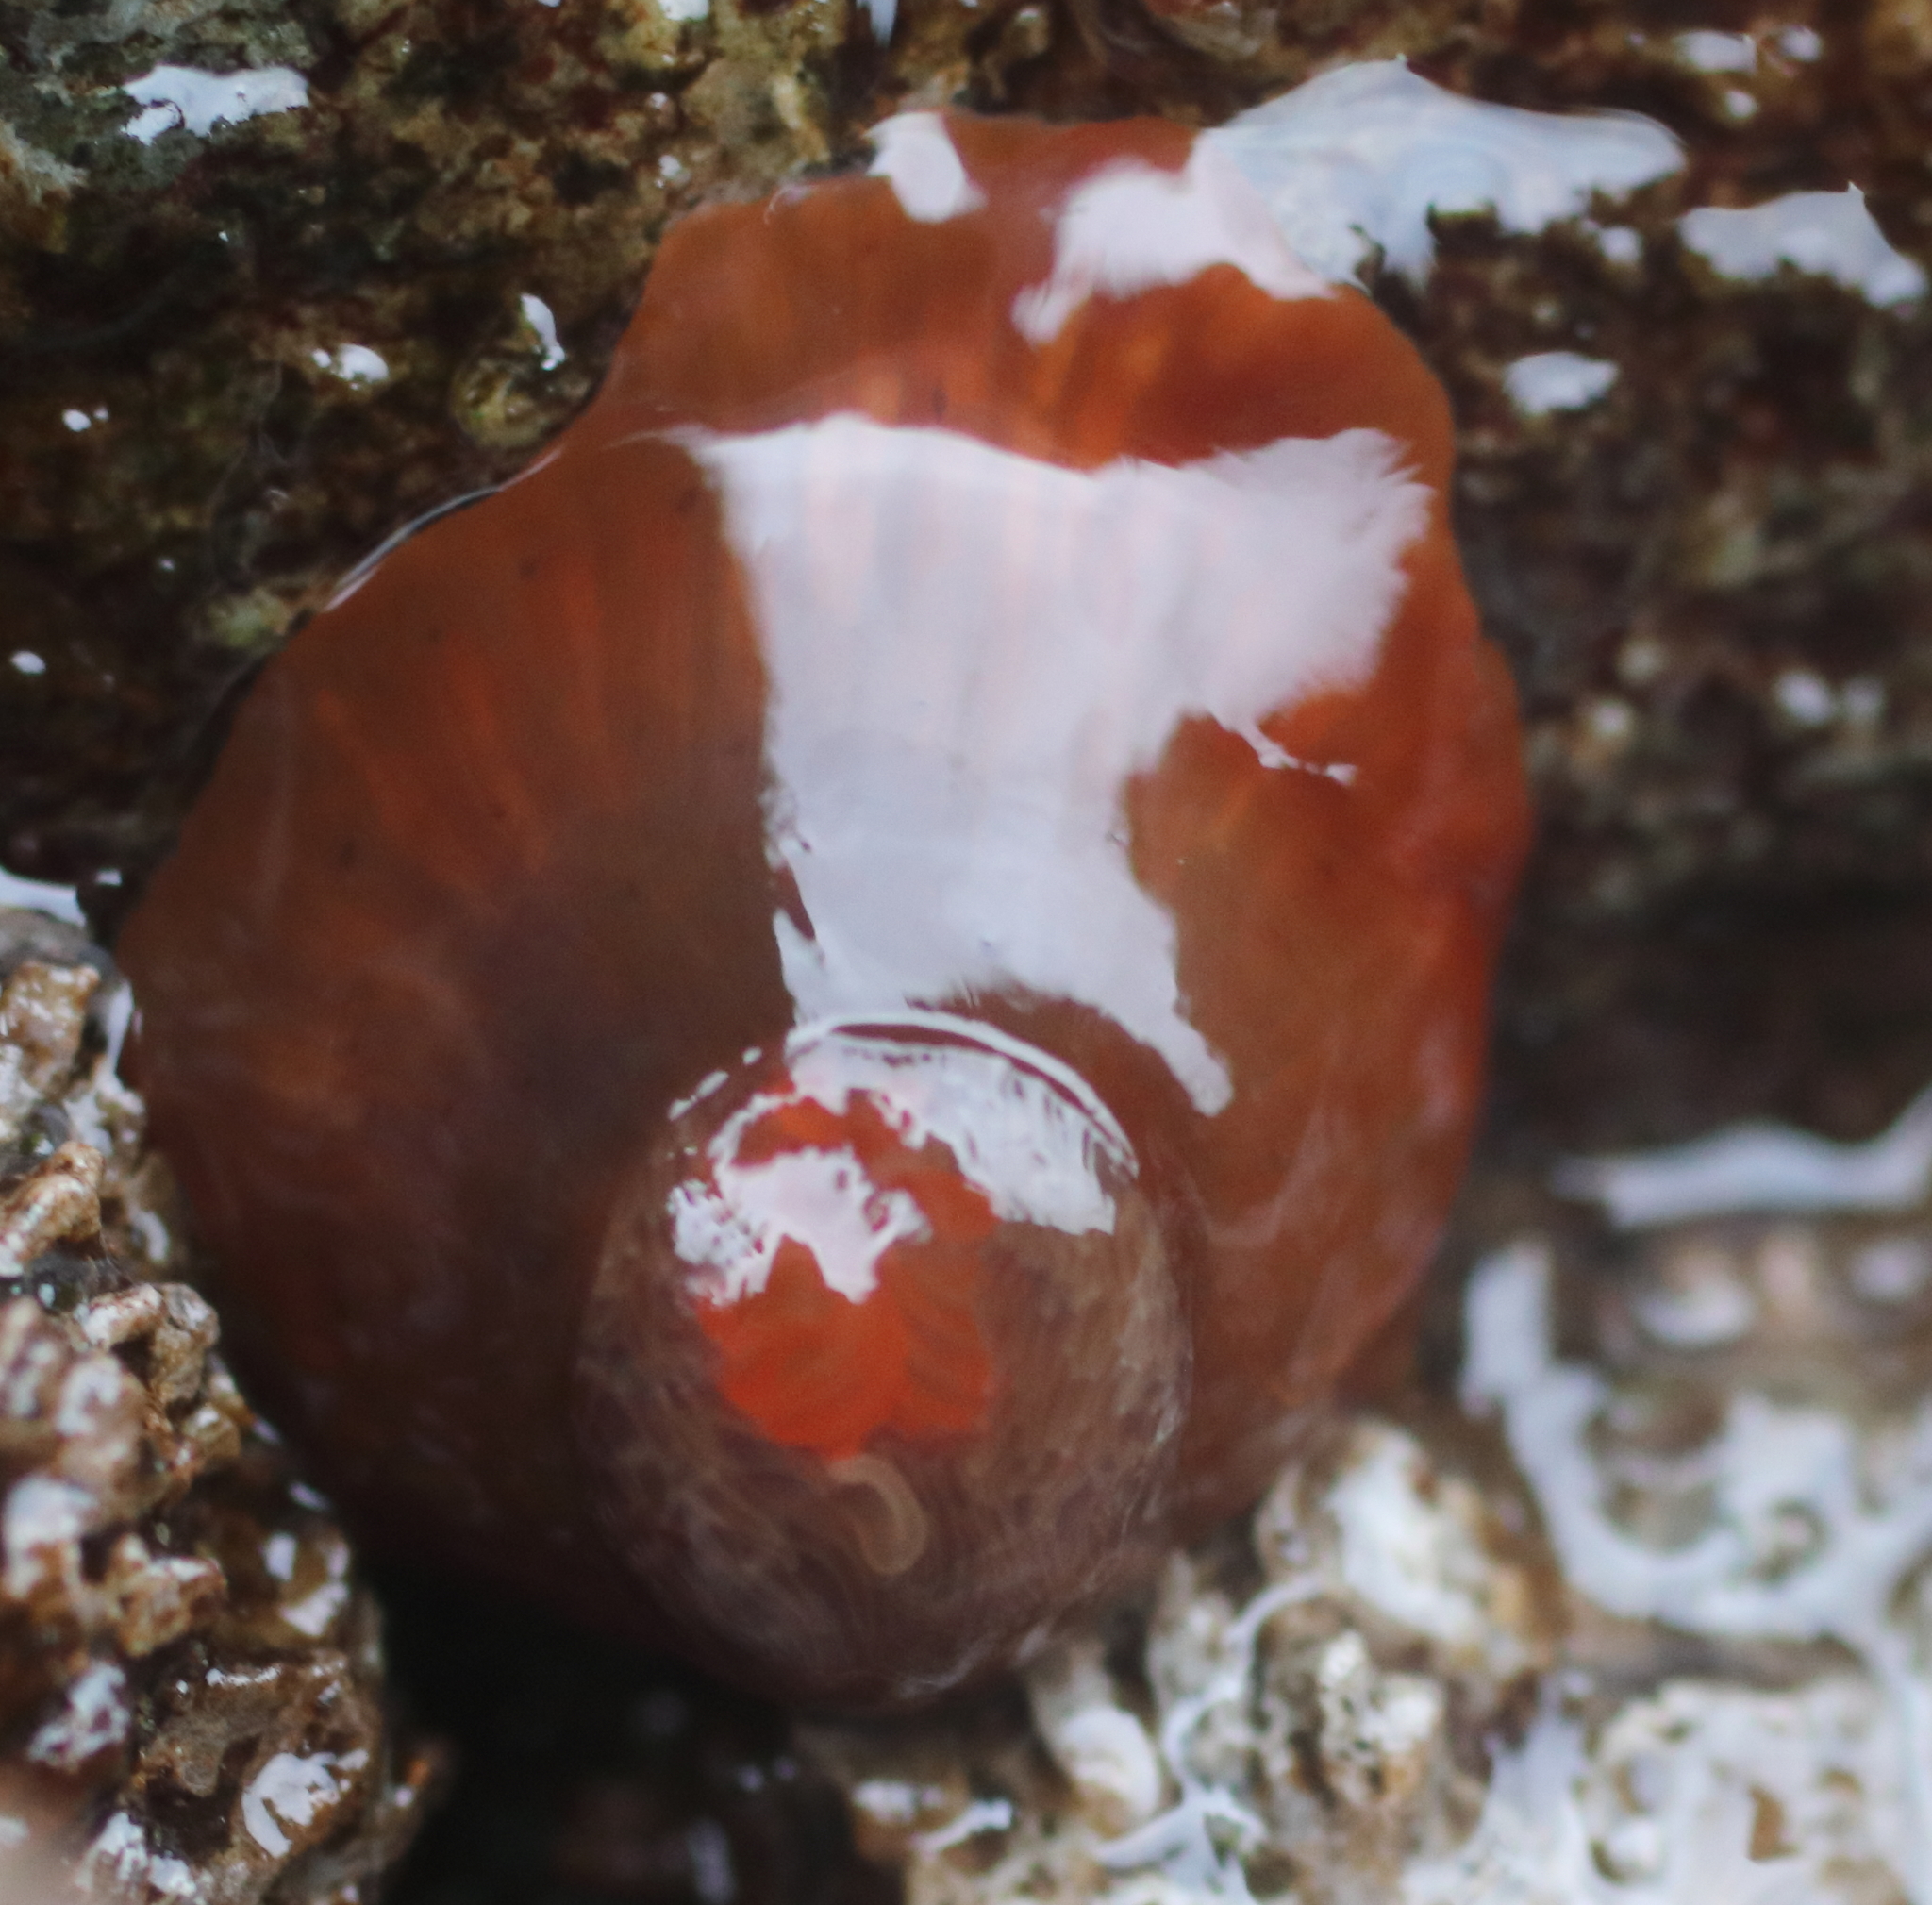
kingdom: Animalia
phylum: Cnidaria
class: Anthozoa
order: Actiniaria
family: Metridiidae
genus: Metridium
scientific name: Metridium senile
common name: Clonal plumose anemone
